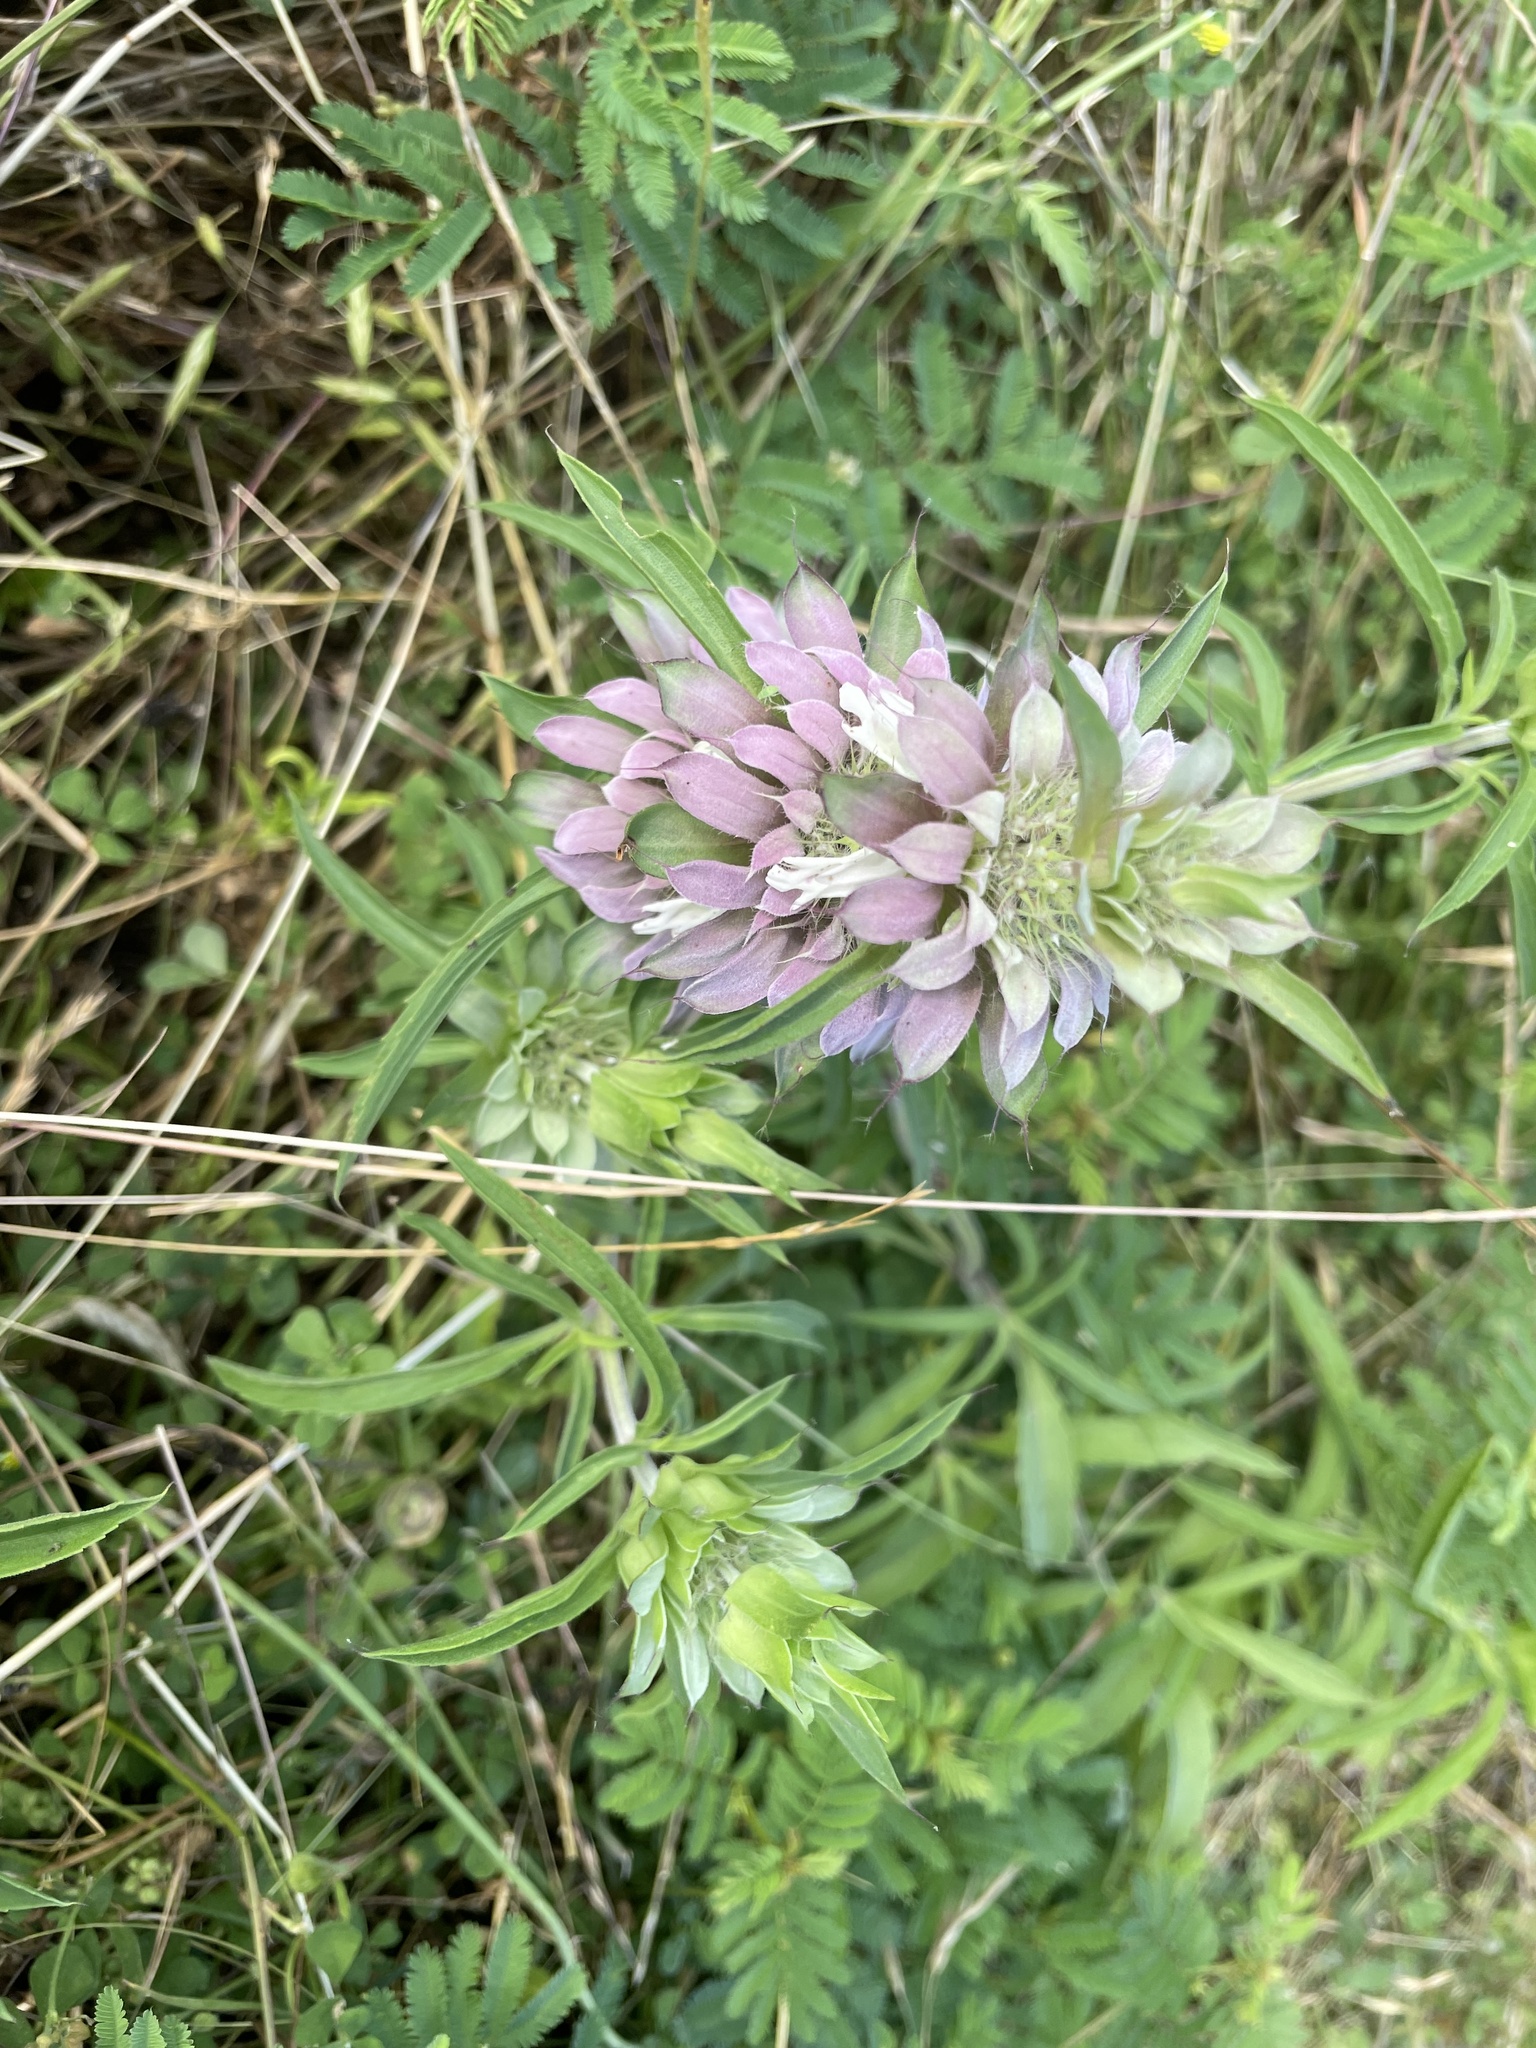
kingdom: Plantae
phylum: Tracheophyta
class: Magnoliopsida
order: Lamiales
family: Lamiaceae
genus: Monarda
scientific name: Monarda citriodora
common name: Lemon beebalm
